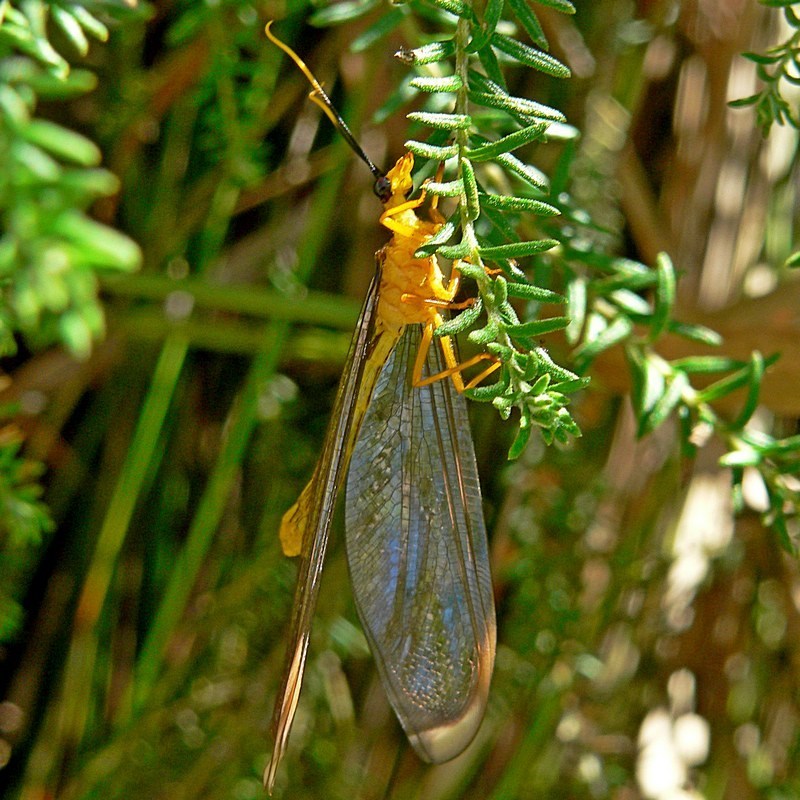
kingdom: Animalia
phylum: Arthropoda
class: Insecta
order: Neuroptera
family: Nymphidae
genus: Nymphes
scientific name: Nymphes myrmeleonoides
